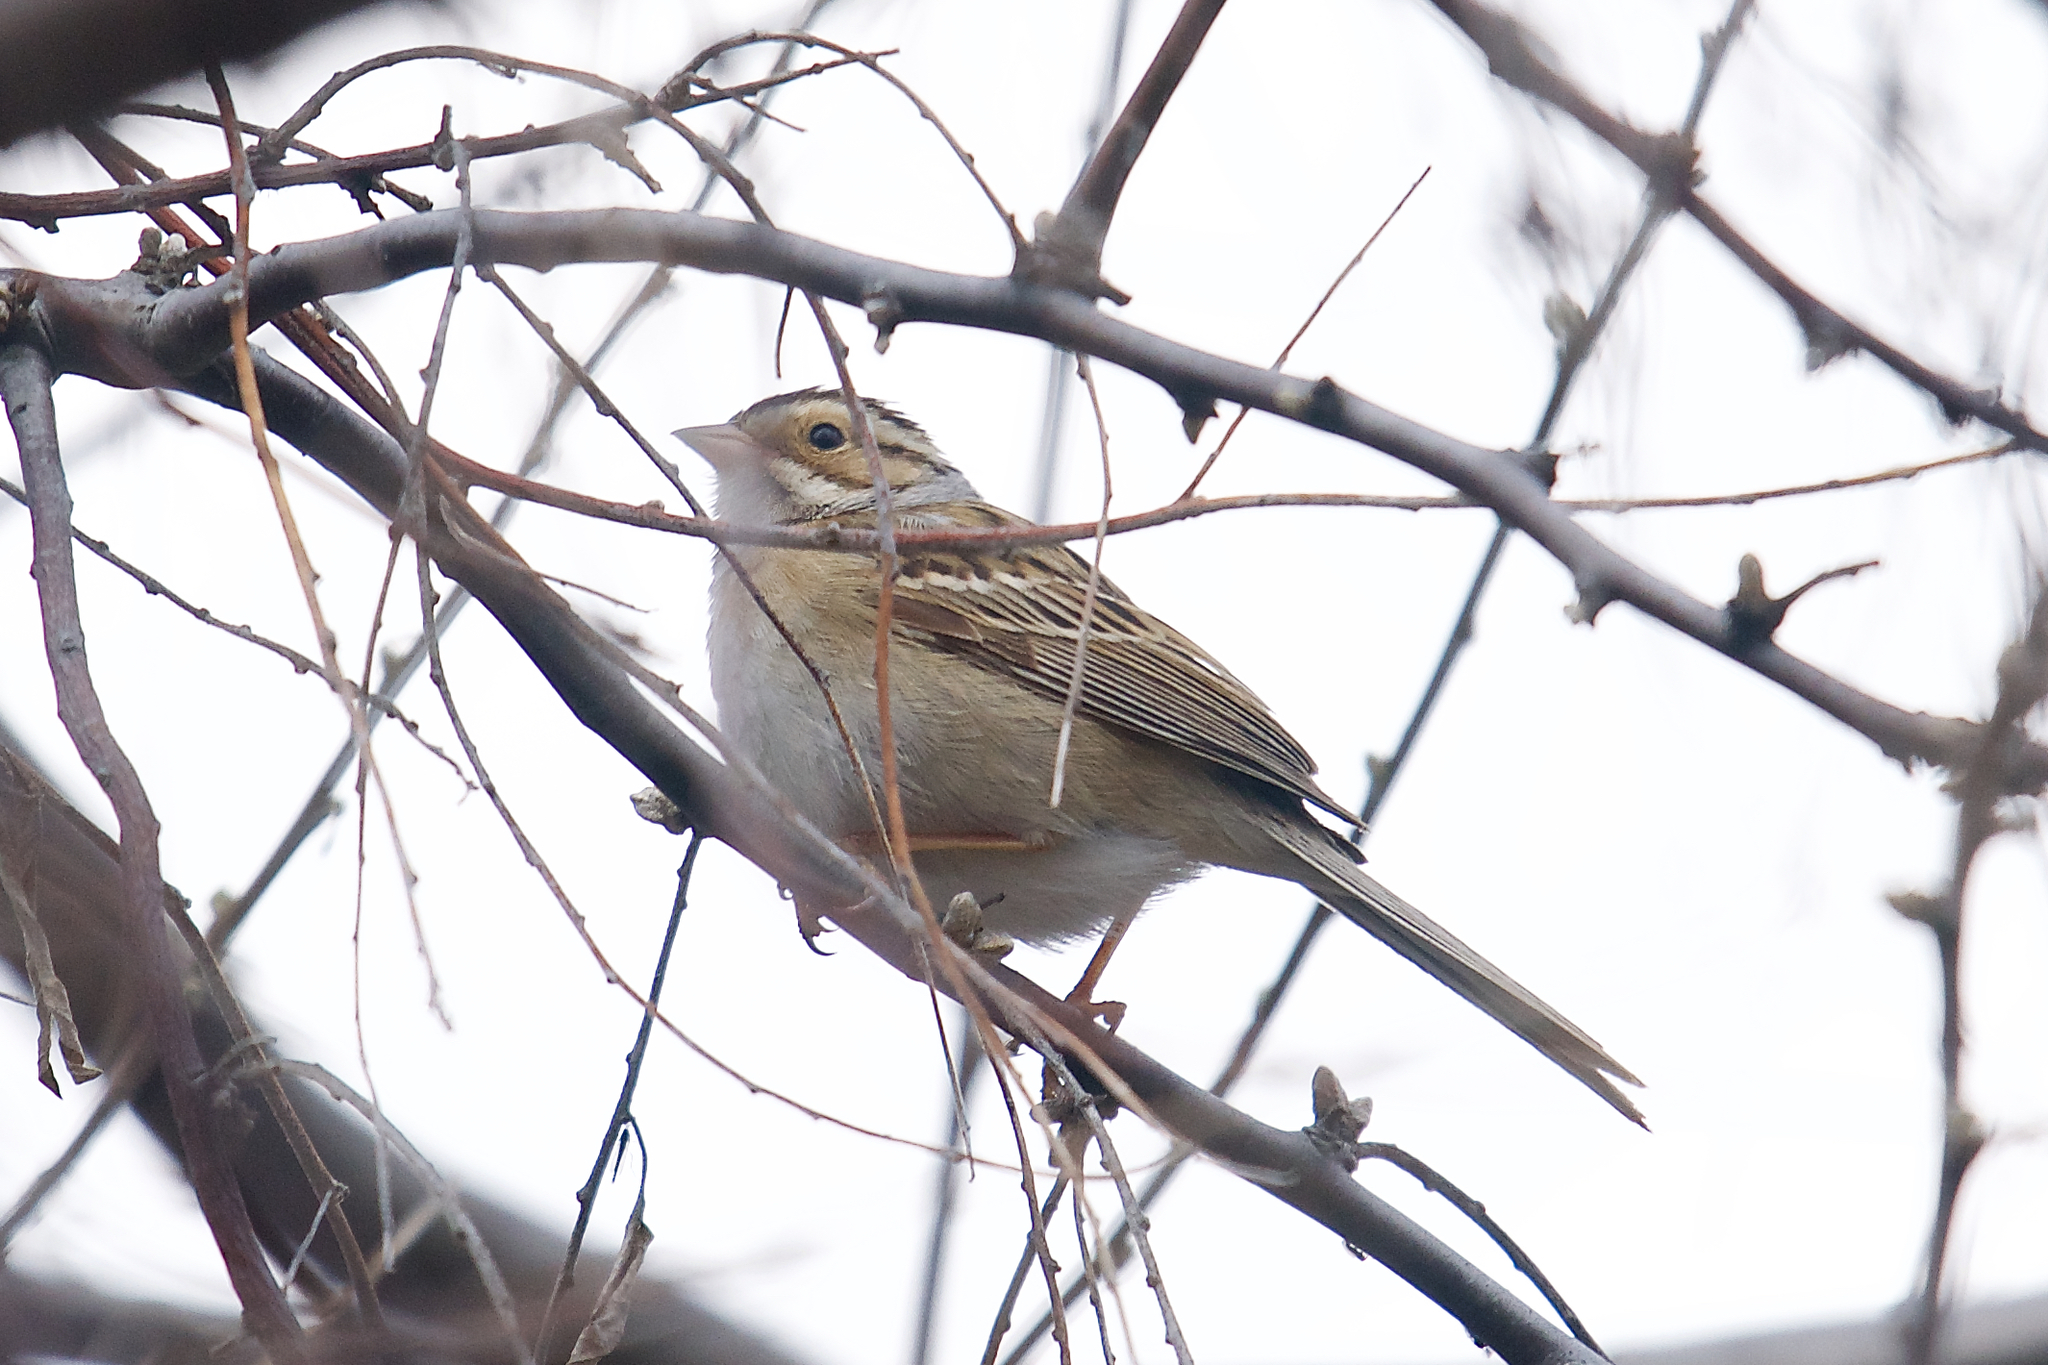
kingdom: Animalia
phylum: Chordata
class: Aves
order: Passeriformes
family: Passerellidae
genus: Spizella
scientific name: Spizella pallida
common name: Clay-colored sparrow
